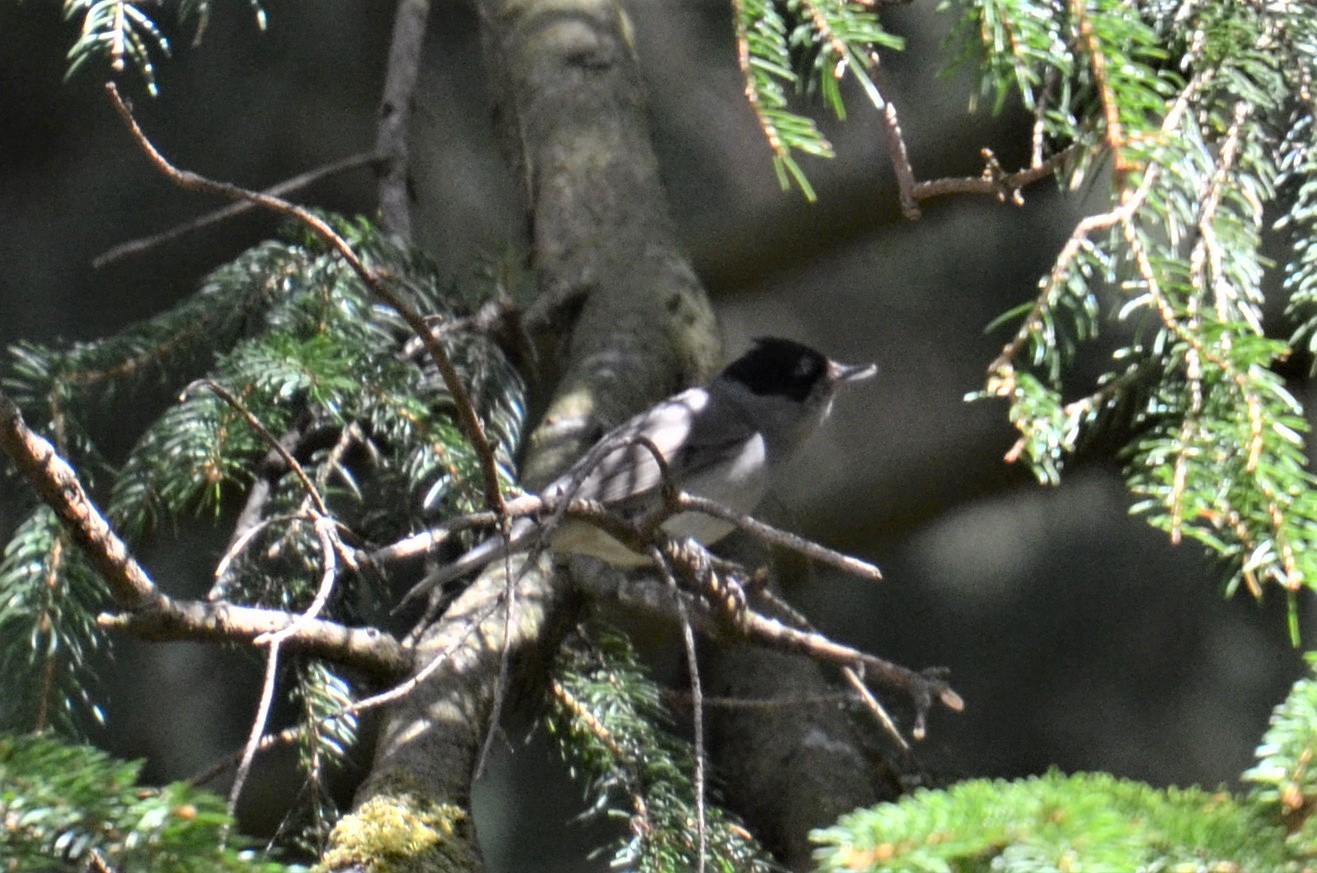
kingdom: Animalia
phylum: Chordata
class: Aves
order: Passeriformes
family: Sylviidae
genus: Sylvia
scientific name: Sylvia atricapilla
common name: Eurasian blackcap
